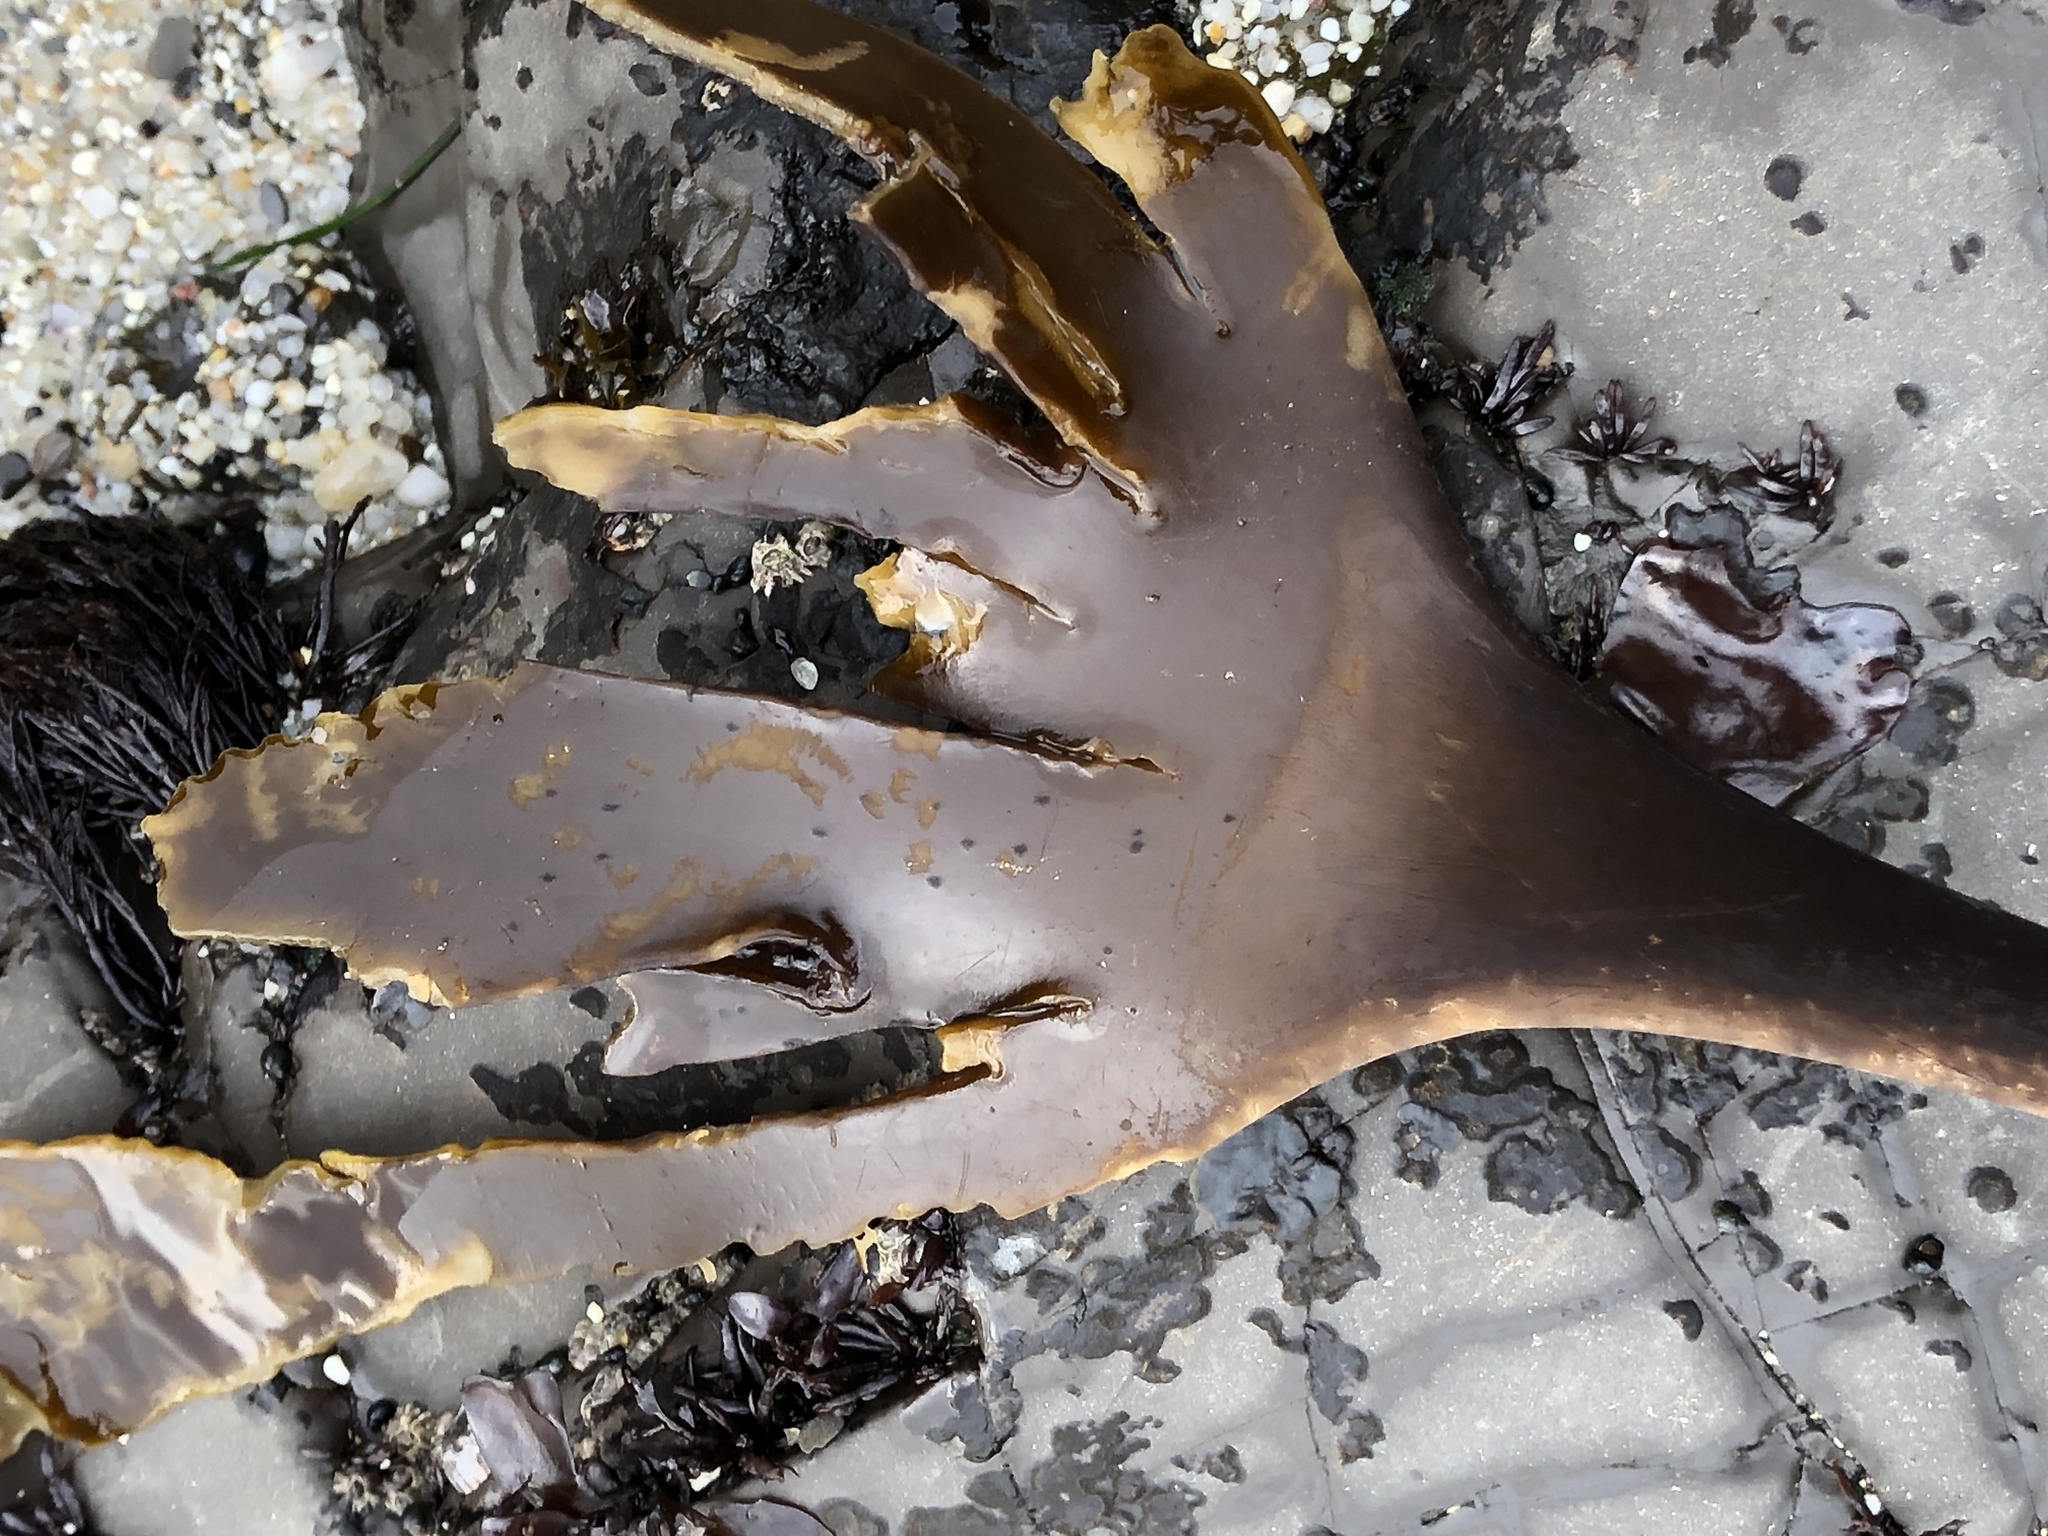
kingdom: Chromista
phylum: Ochrophyta
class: Phaeophyceae
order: Laminariales
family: Laminariaceae
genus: Laminaria
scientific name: Laminaria setchellii
